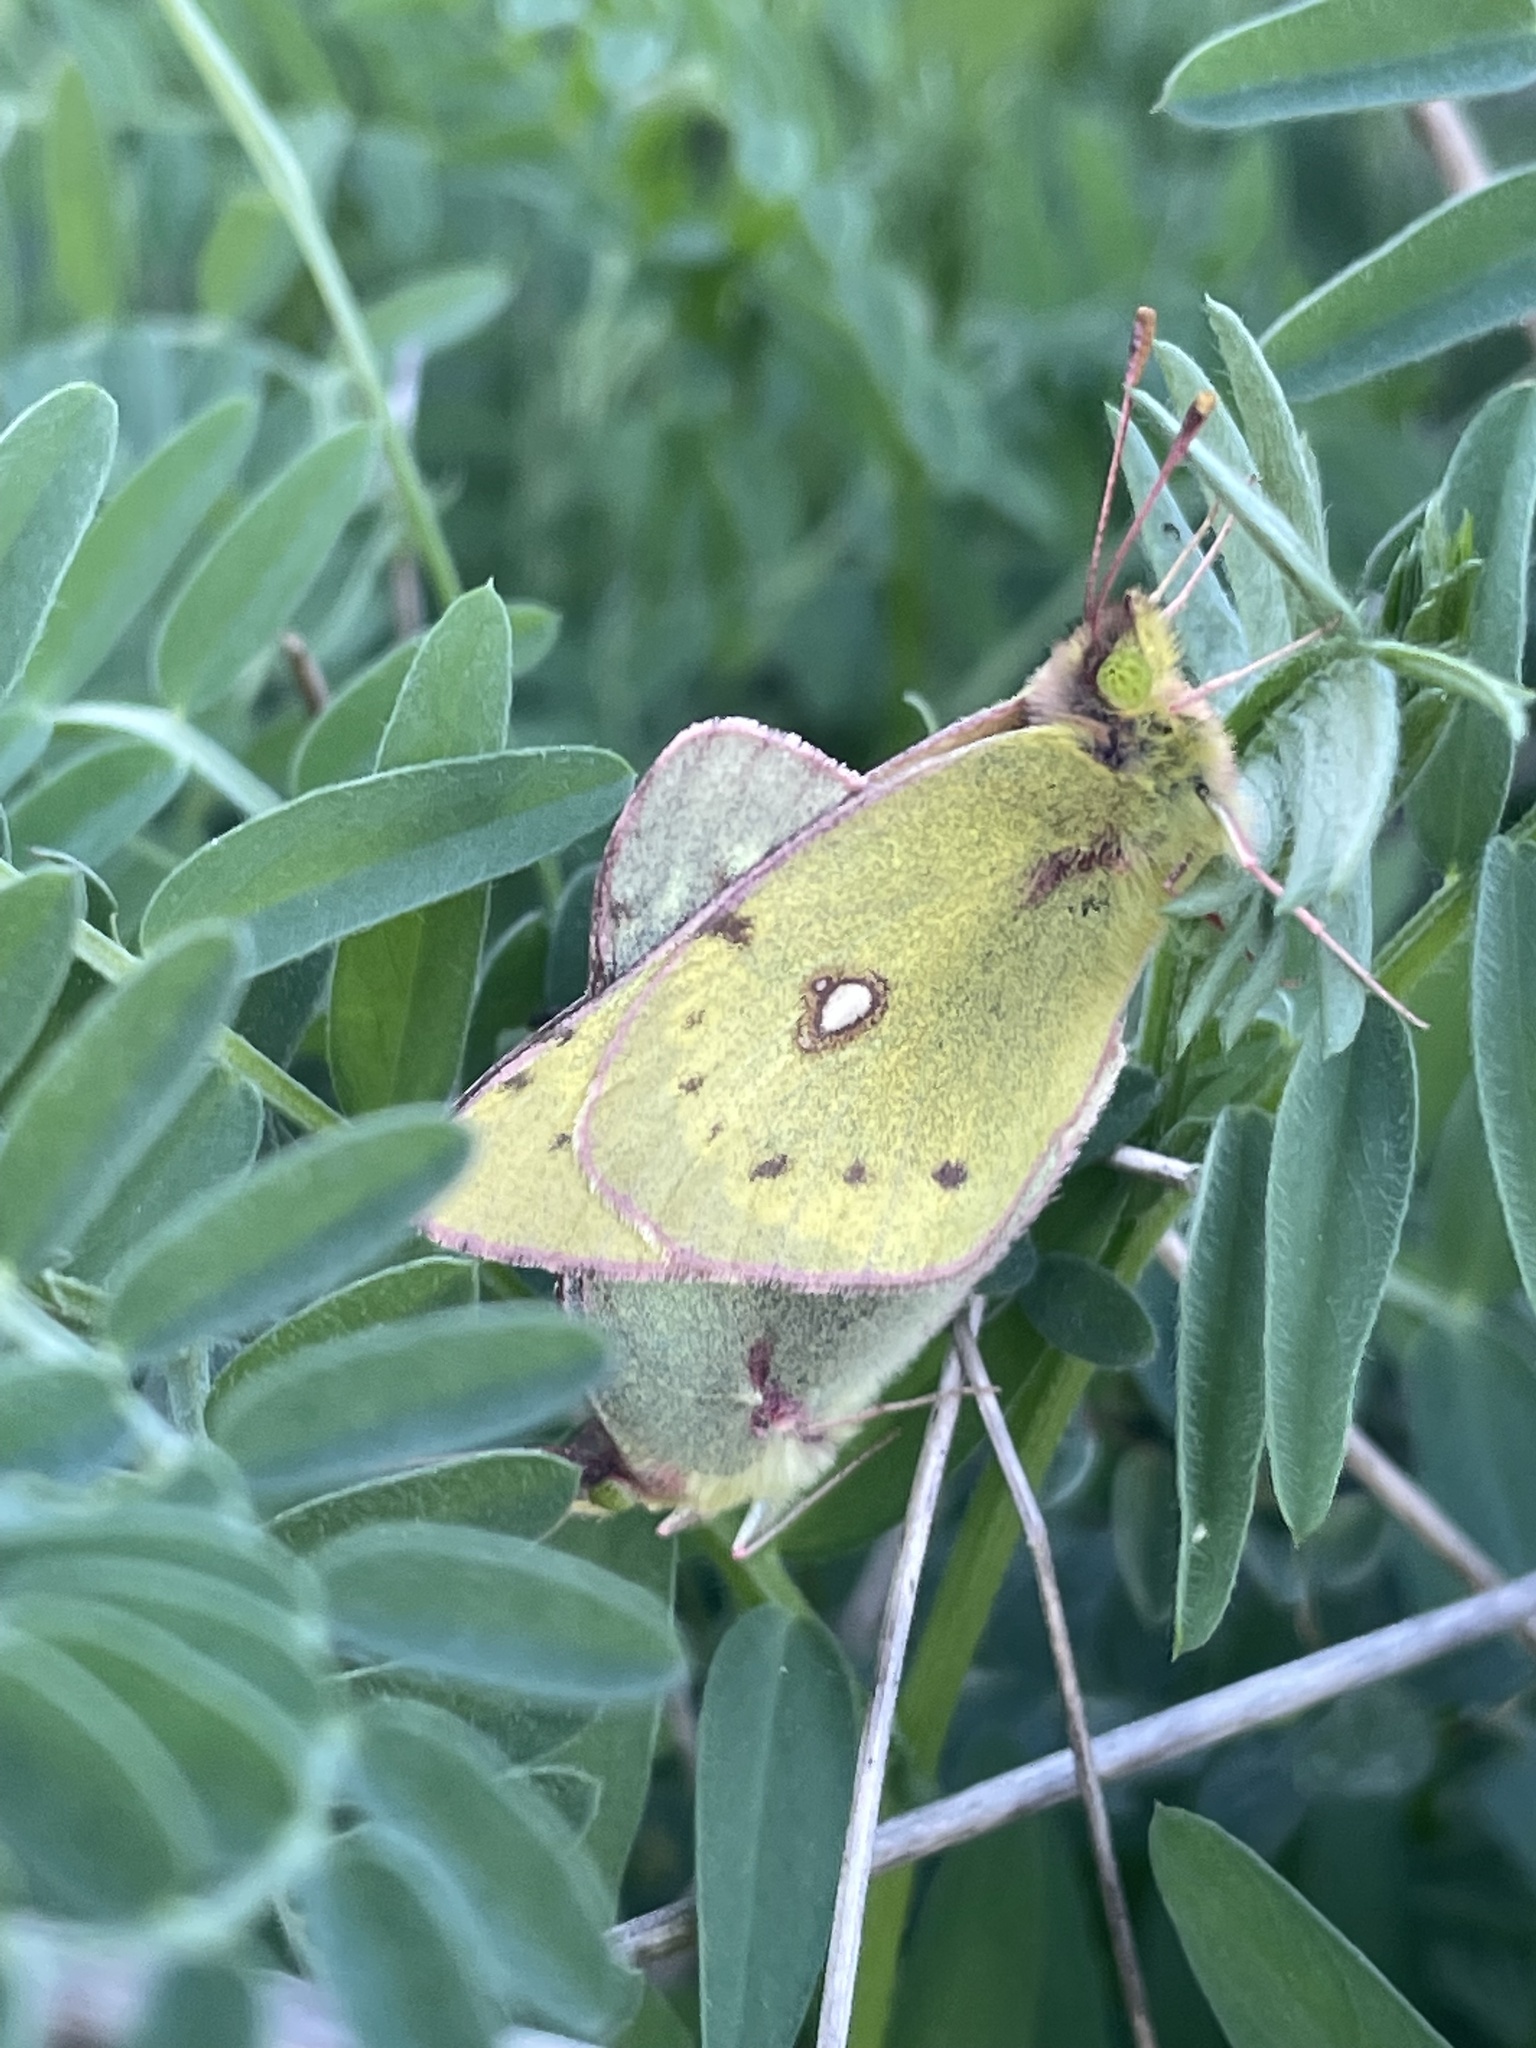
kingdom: Animalia
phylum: Arthropoda
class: Insecta
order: Lepidoptera
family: Pieridae
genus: Colias
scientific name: Colias eurytheme
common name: Alfalfa butterfly
